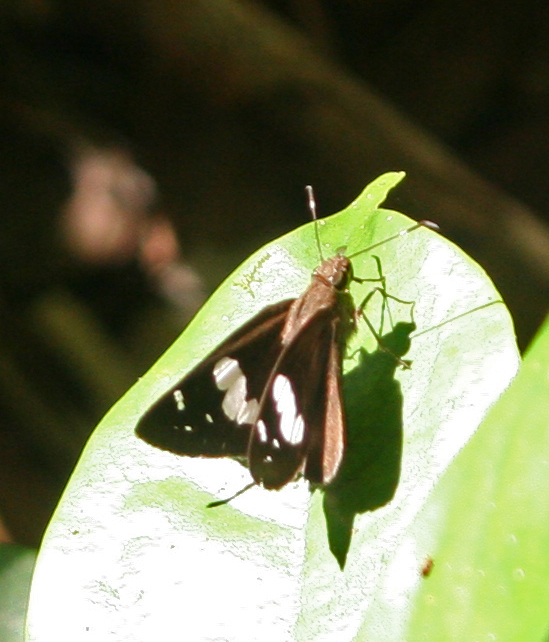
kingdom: Animalia
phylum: Arthropoda
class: Insecta
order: Lepidoptera
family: Hesperiidae
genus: Notocrypta
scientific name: Notocrypta curvifascia
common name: Restricted demon
